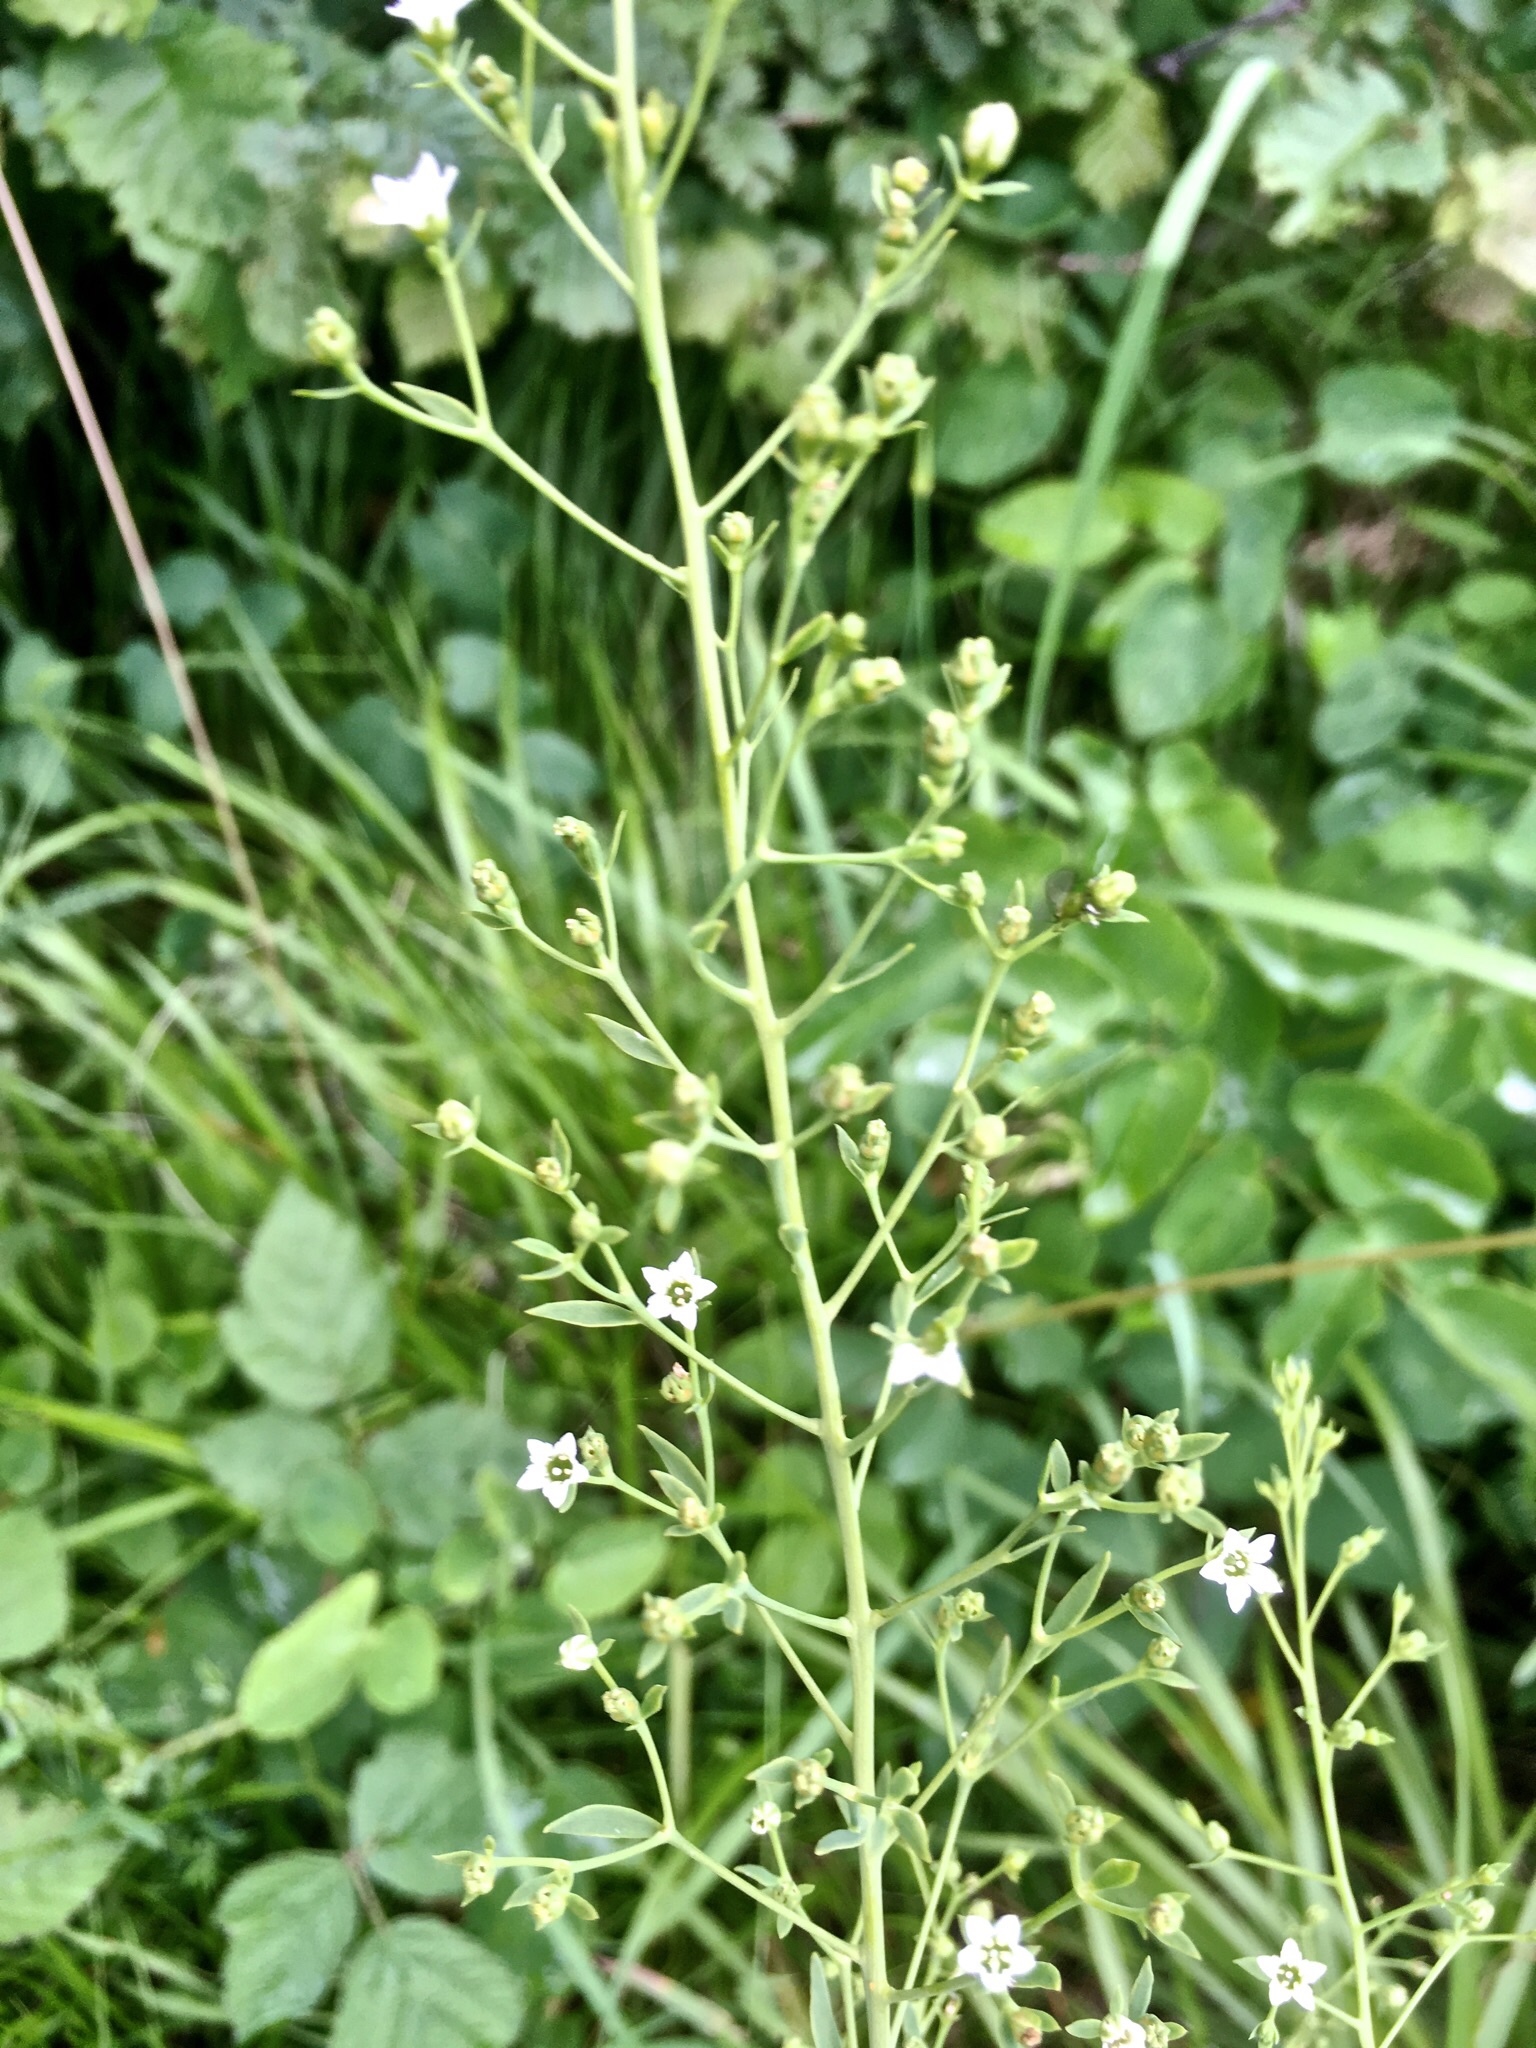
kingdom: Plantae
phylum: Tracheophyta
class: Magnoliopsida
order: Santalales
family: Thesiaceae
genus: Thesium
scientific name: Thesium bavarum
